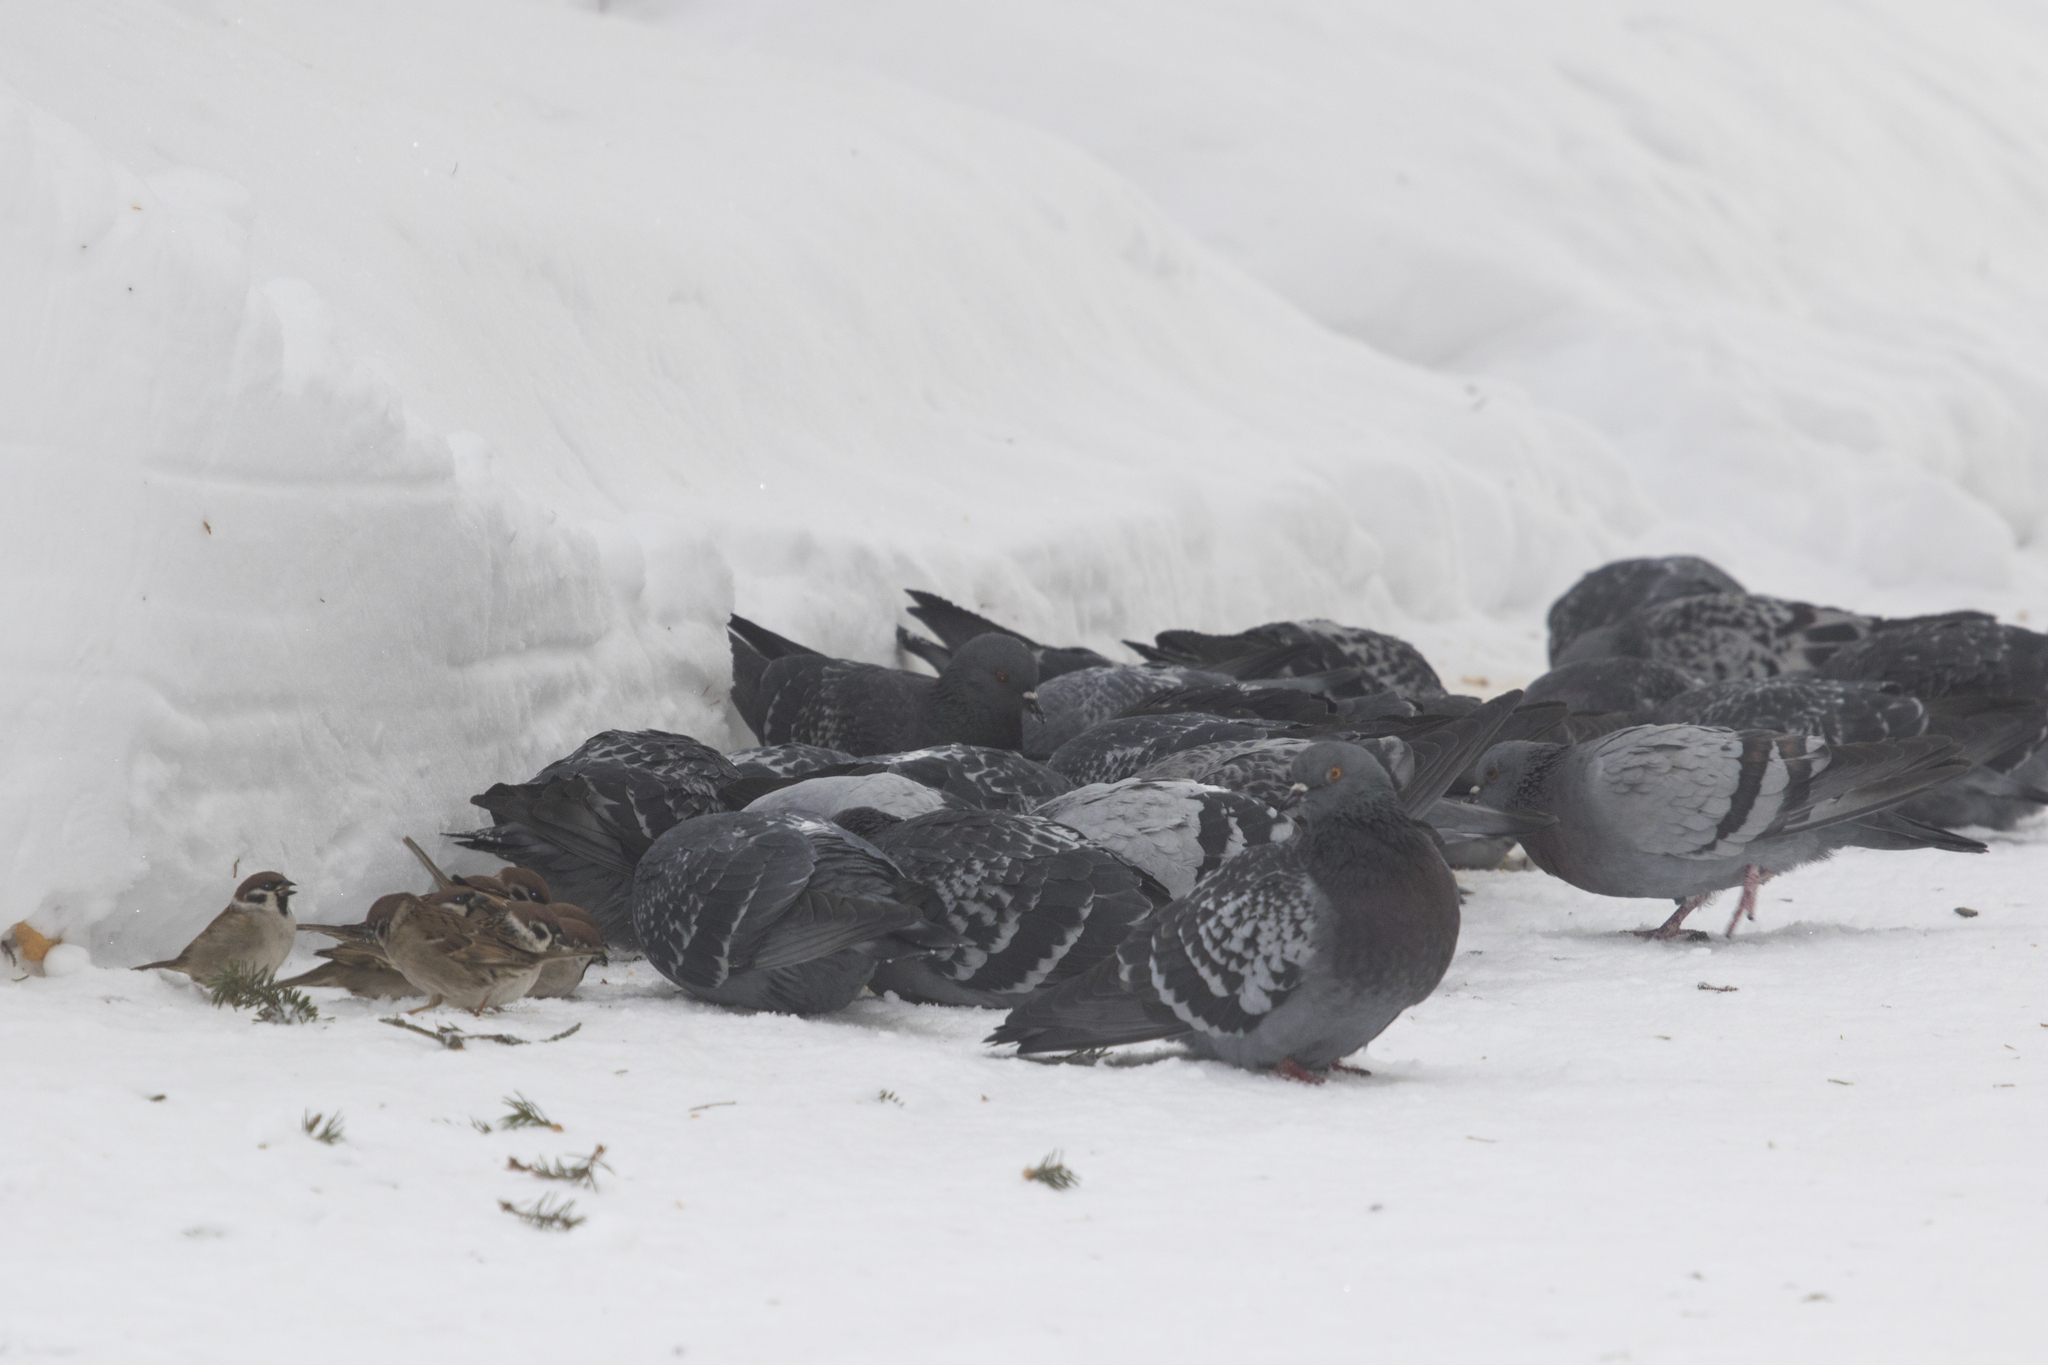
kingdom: Animalia
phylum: Chordata
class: Aves
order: Columbiformes
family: Columbidae
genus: Columba
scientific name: Columba livia
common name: Rock pigeon
